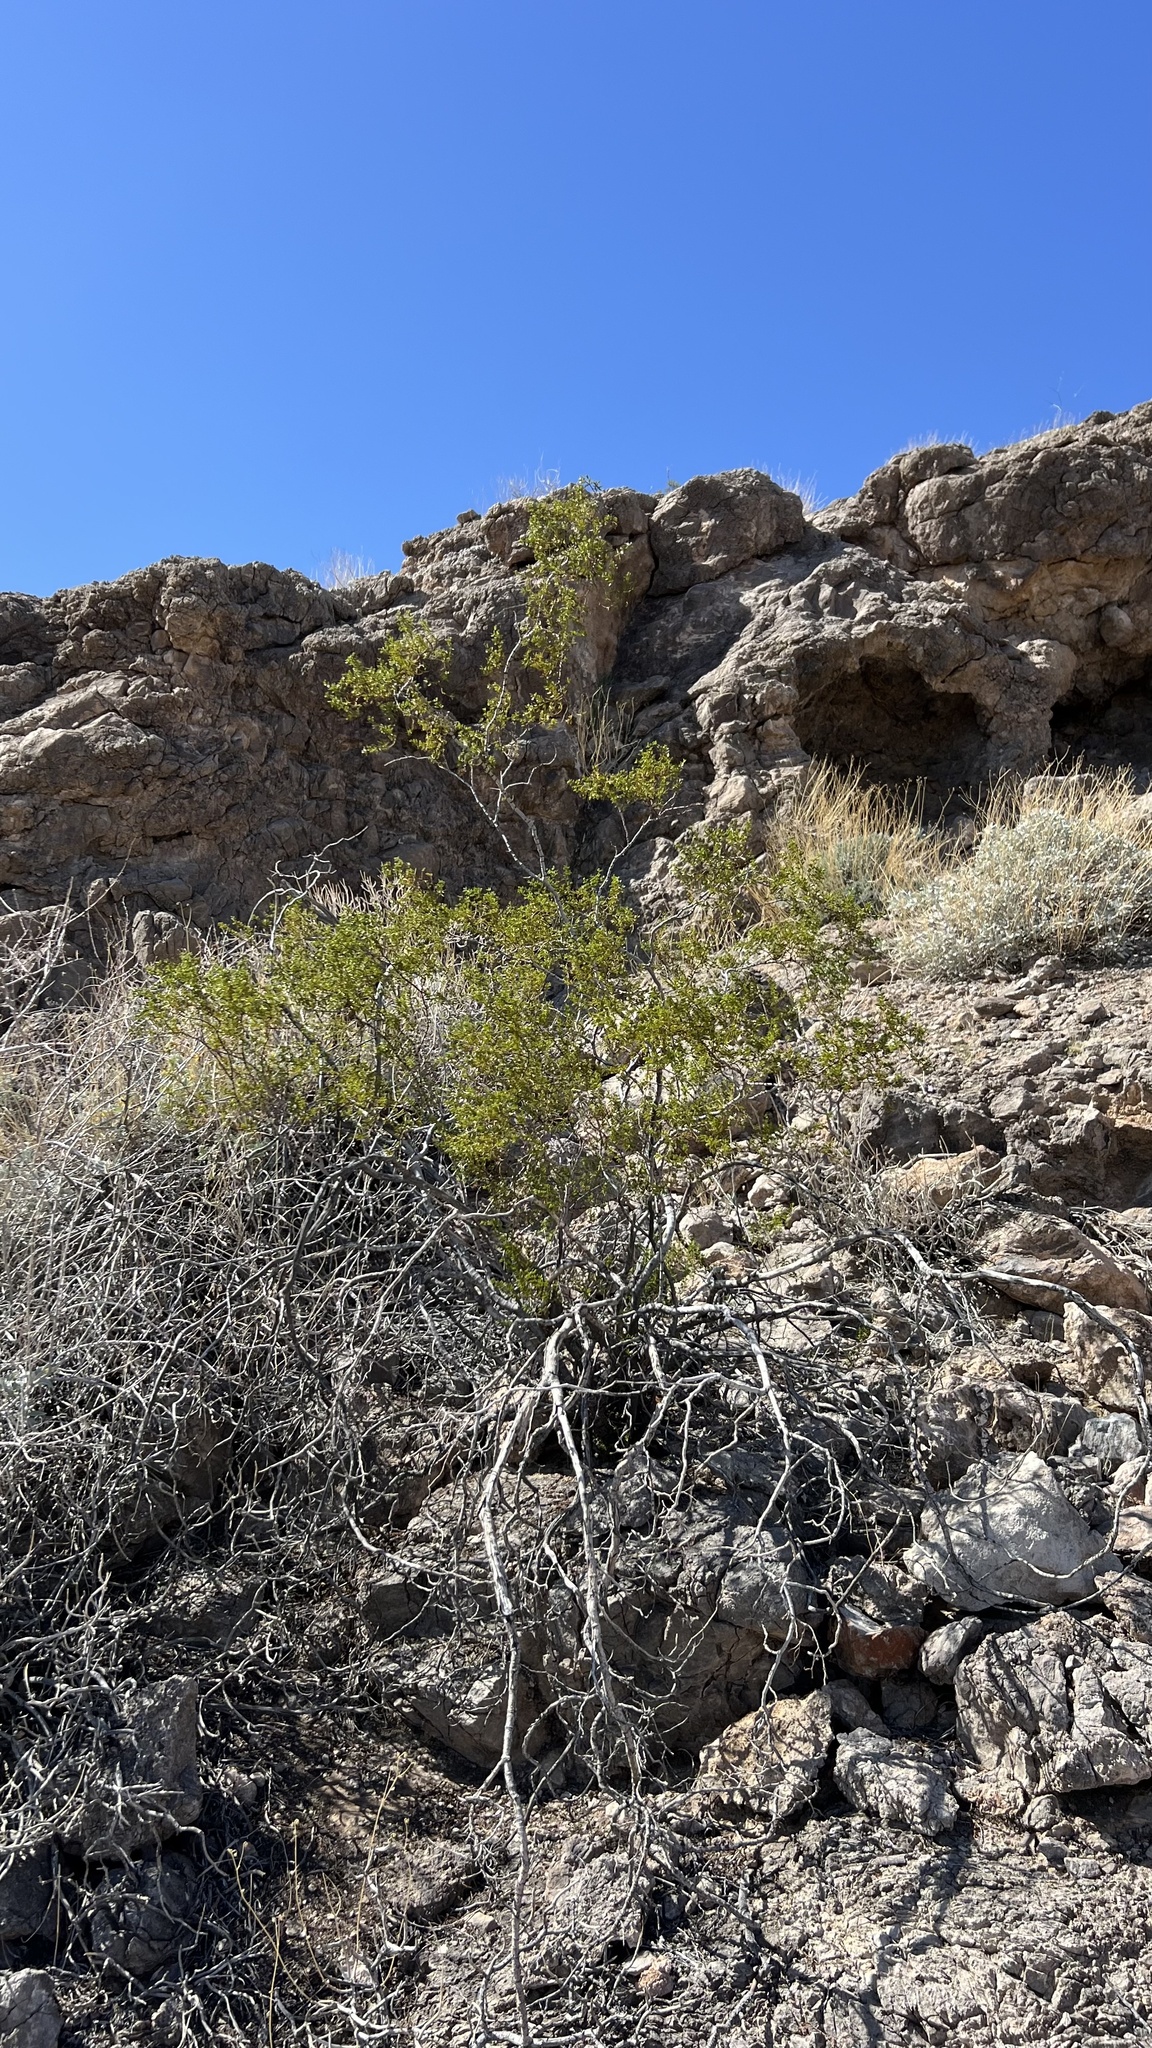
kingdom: Plantae
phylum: Tracheophyta
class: Magnoliopsida
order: Zygophyllales
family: Zygophyllaceae
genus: Larrea
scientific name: Larrea tridentata
